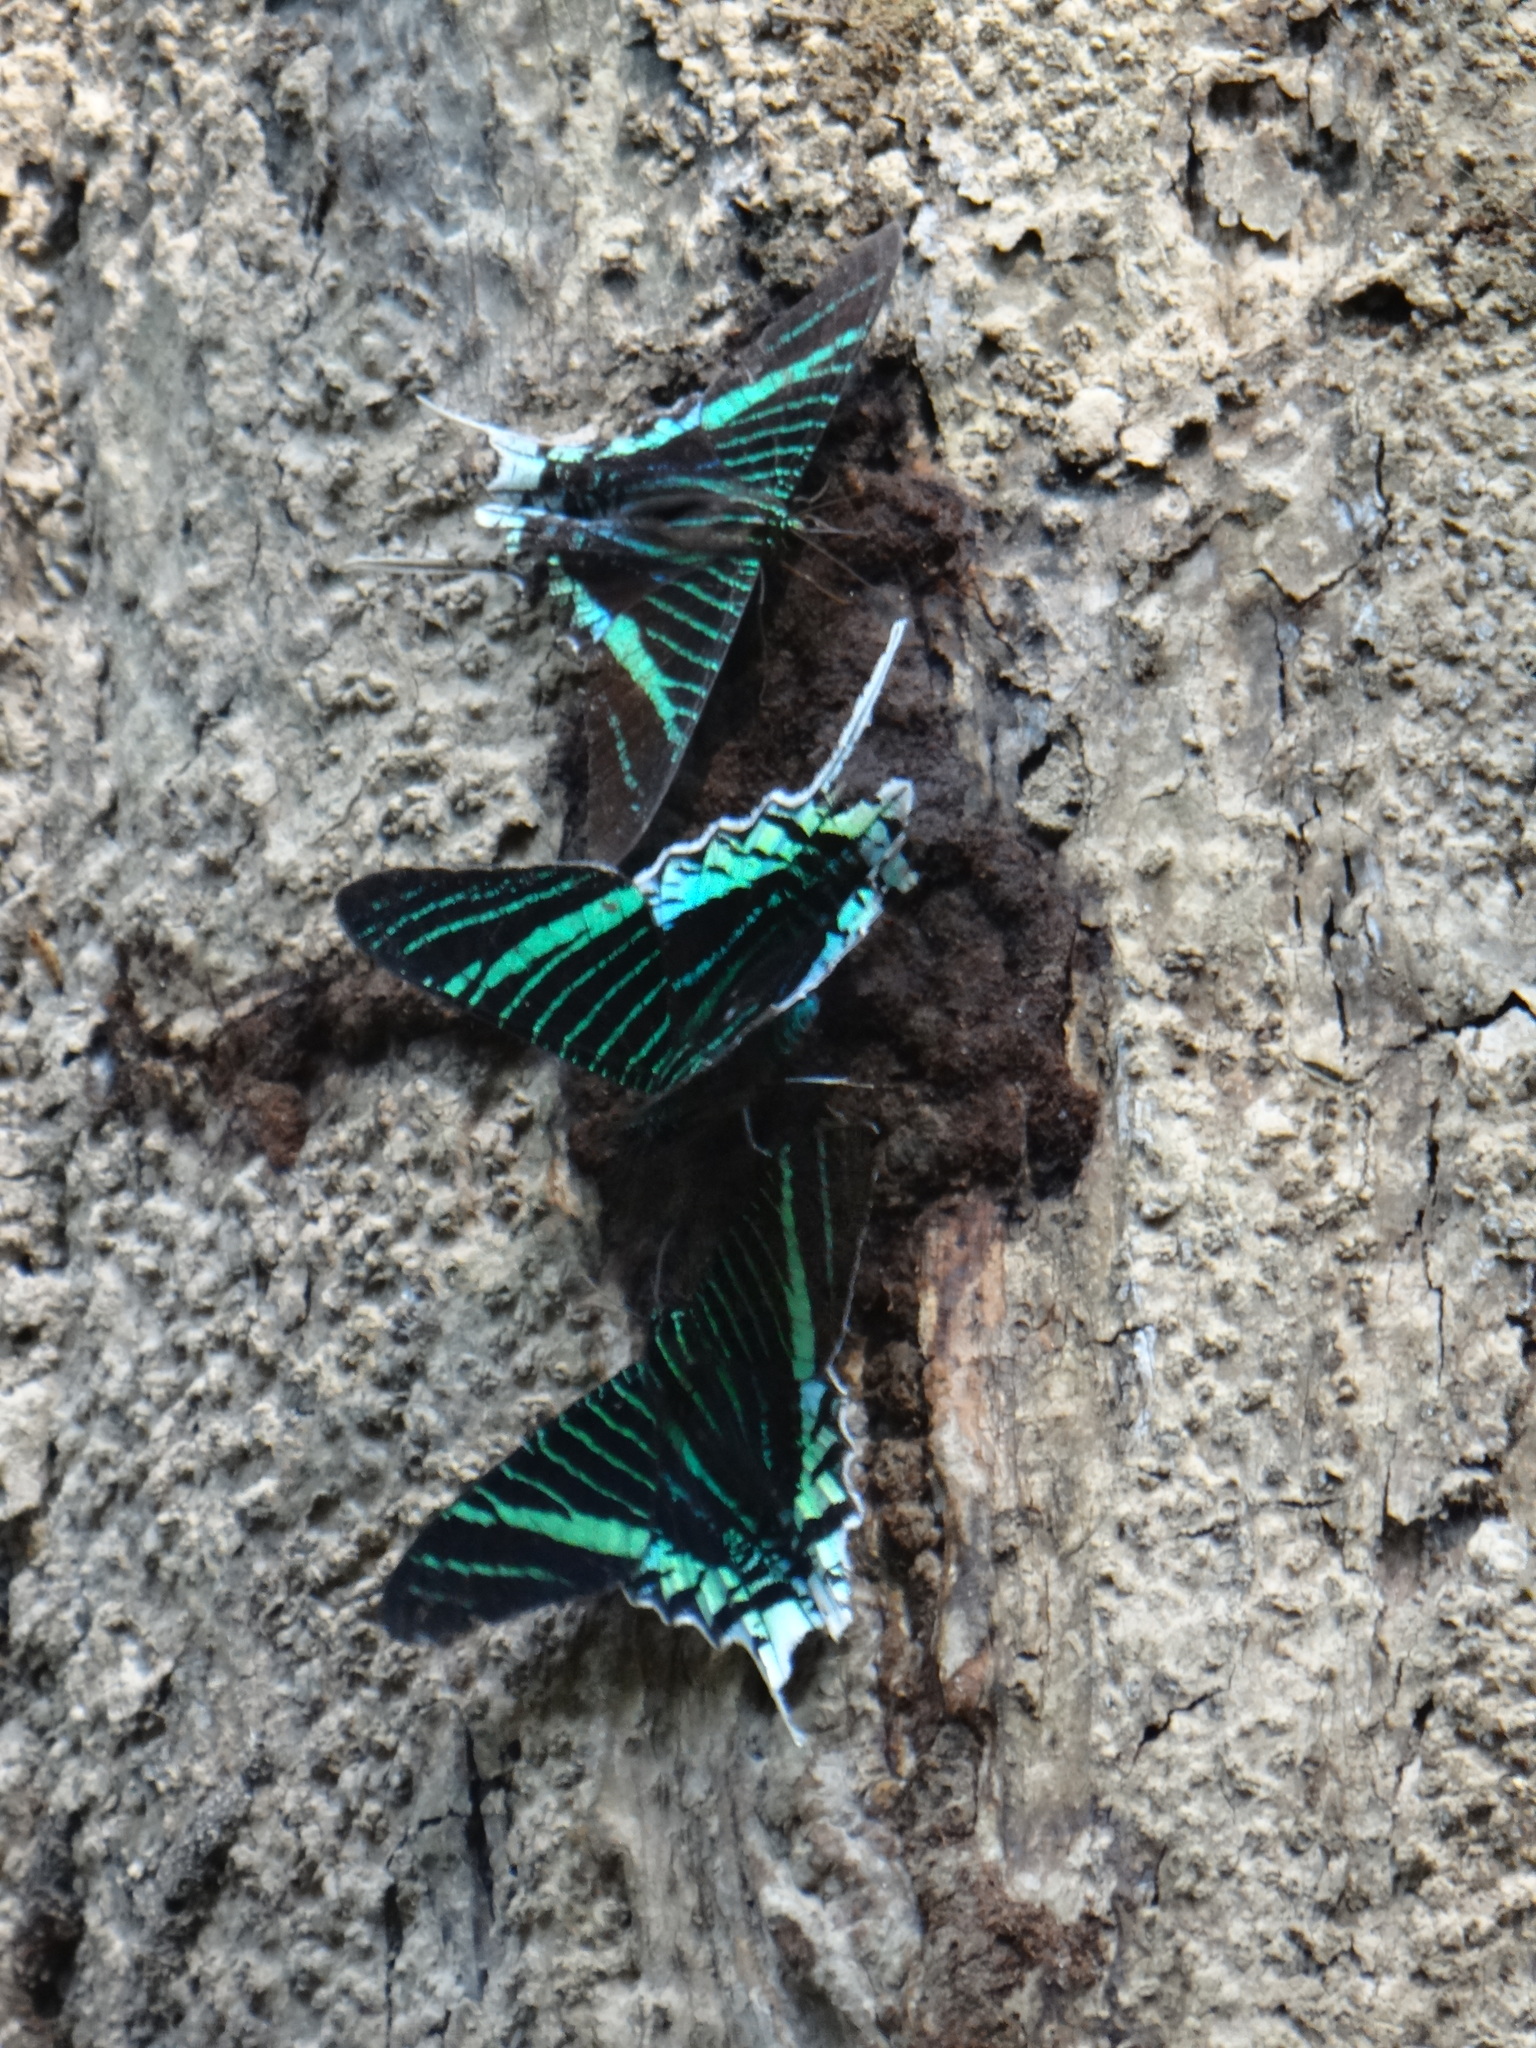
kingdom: Animalia
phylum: Arthropoda
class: Insecta
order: Lepidoptera
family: Uraniidae
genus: Urania
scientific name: Urania leilus
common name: Peacock moth
